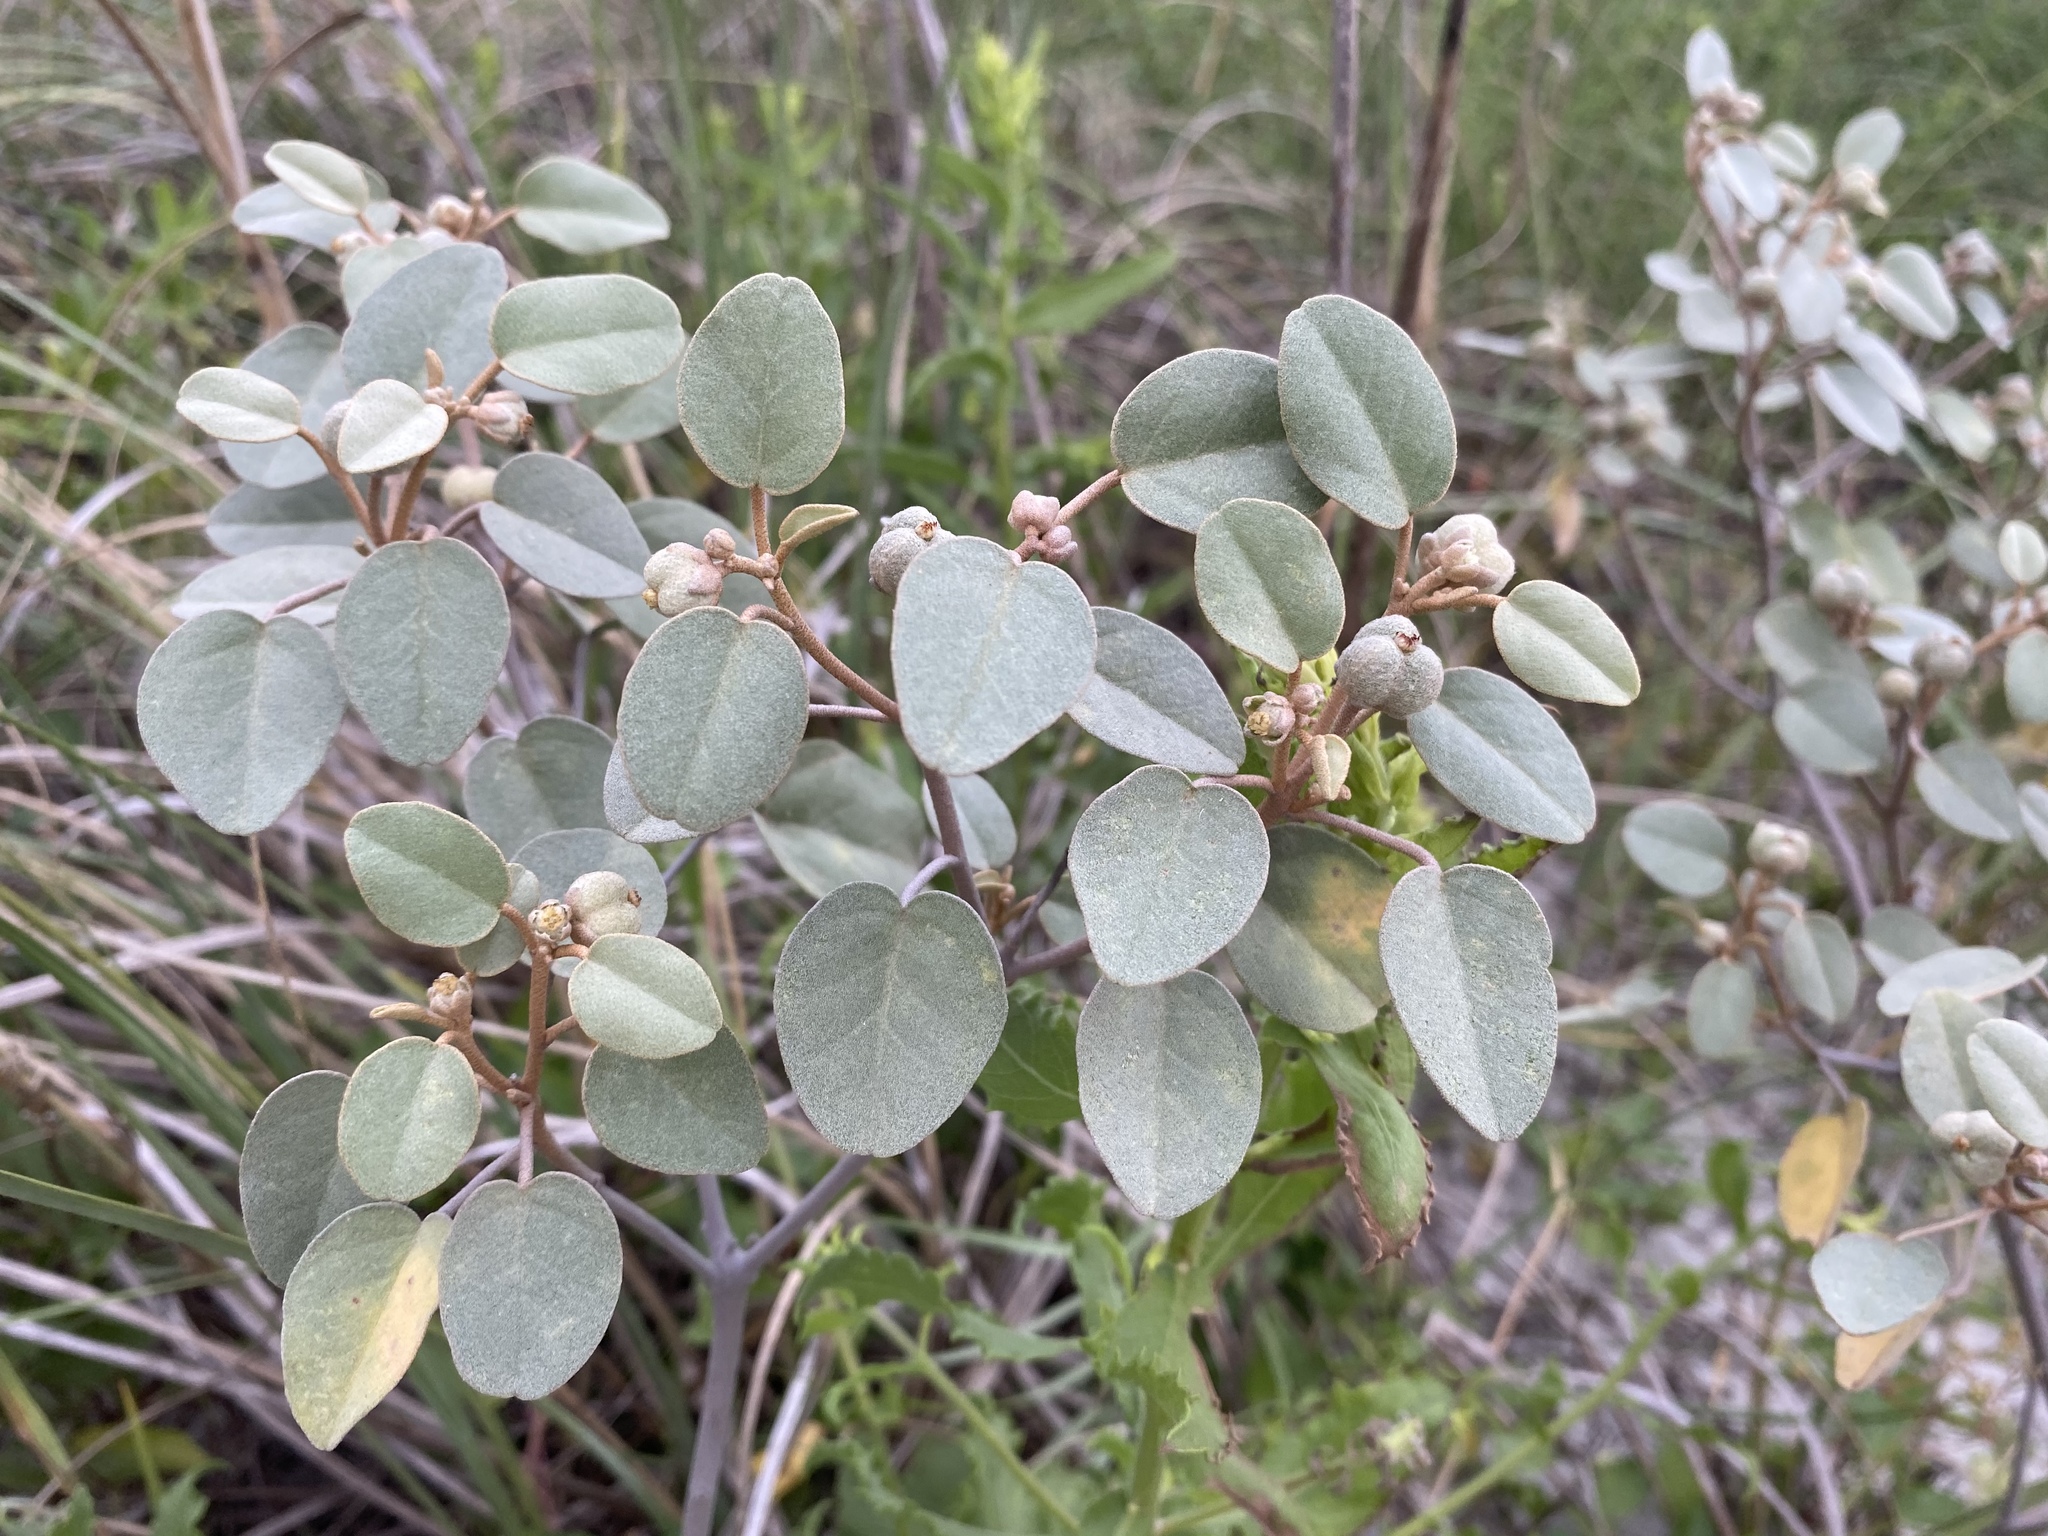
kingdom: Plantae
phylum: Tracheophyta
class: Magnoliopsida
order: Malpighiales
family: Euphorbiaceae
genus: Croton
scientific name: Croton punctatus
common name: Beach-tea
